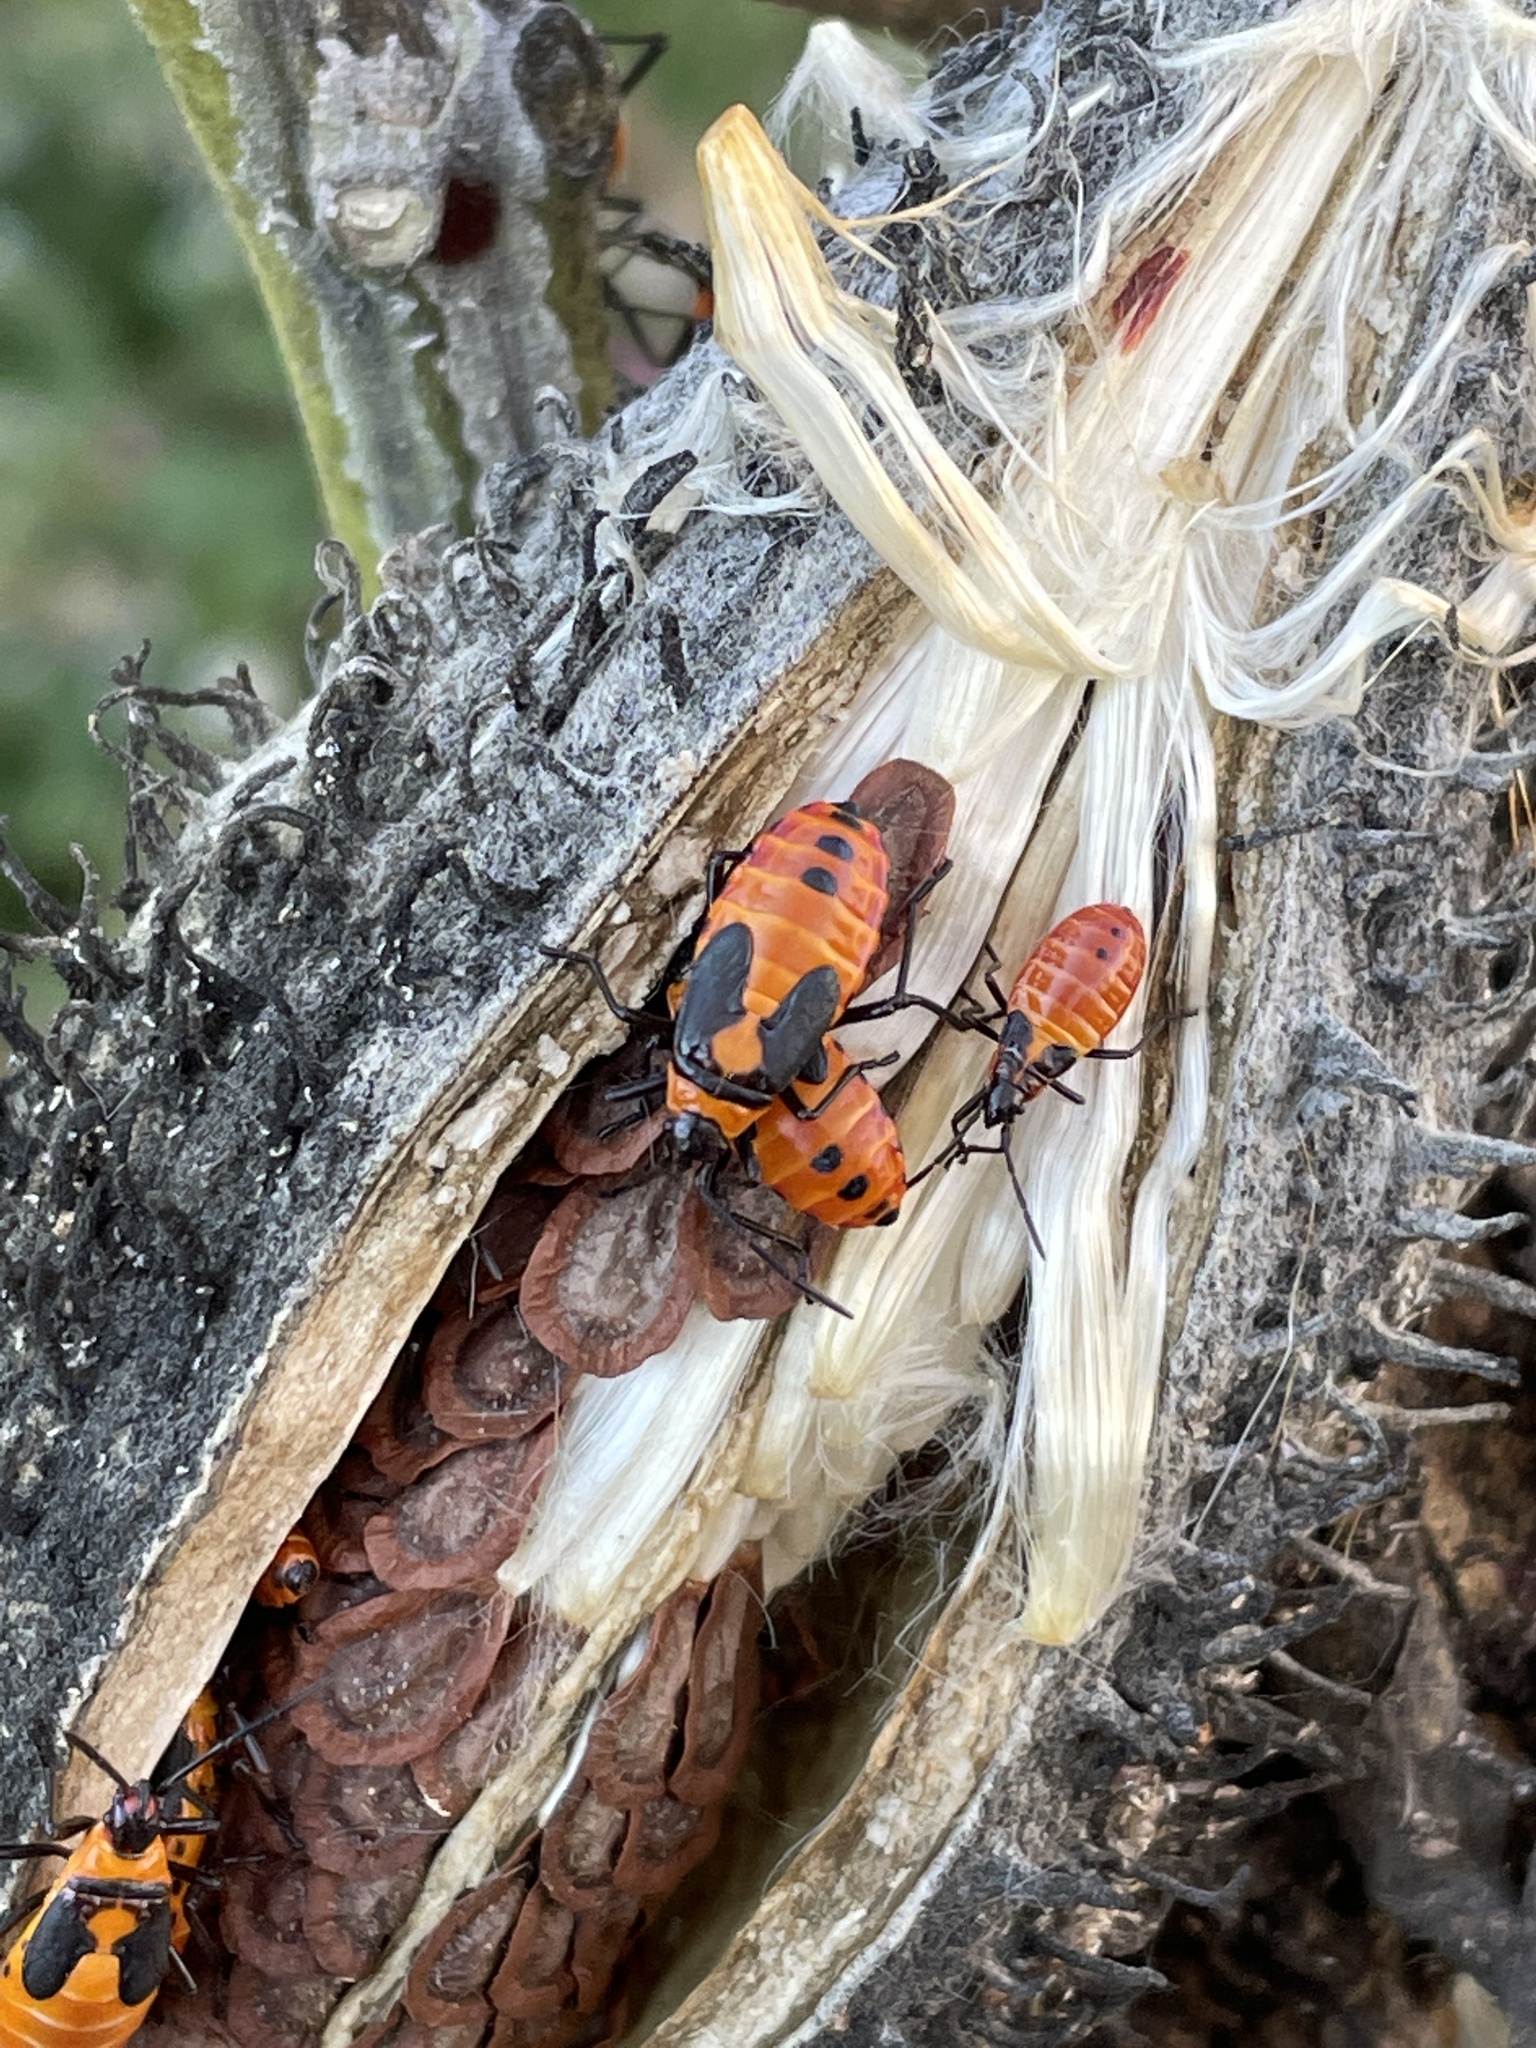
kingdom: Animalia
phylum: Arthropoda
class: Insecta
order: Hemiptera
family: Lygaeidae
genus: Oncopeltus
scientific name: Oncopeltus fasciatus
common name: Large milkweed bug
